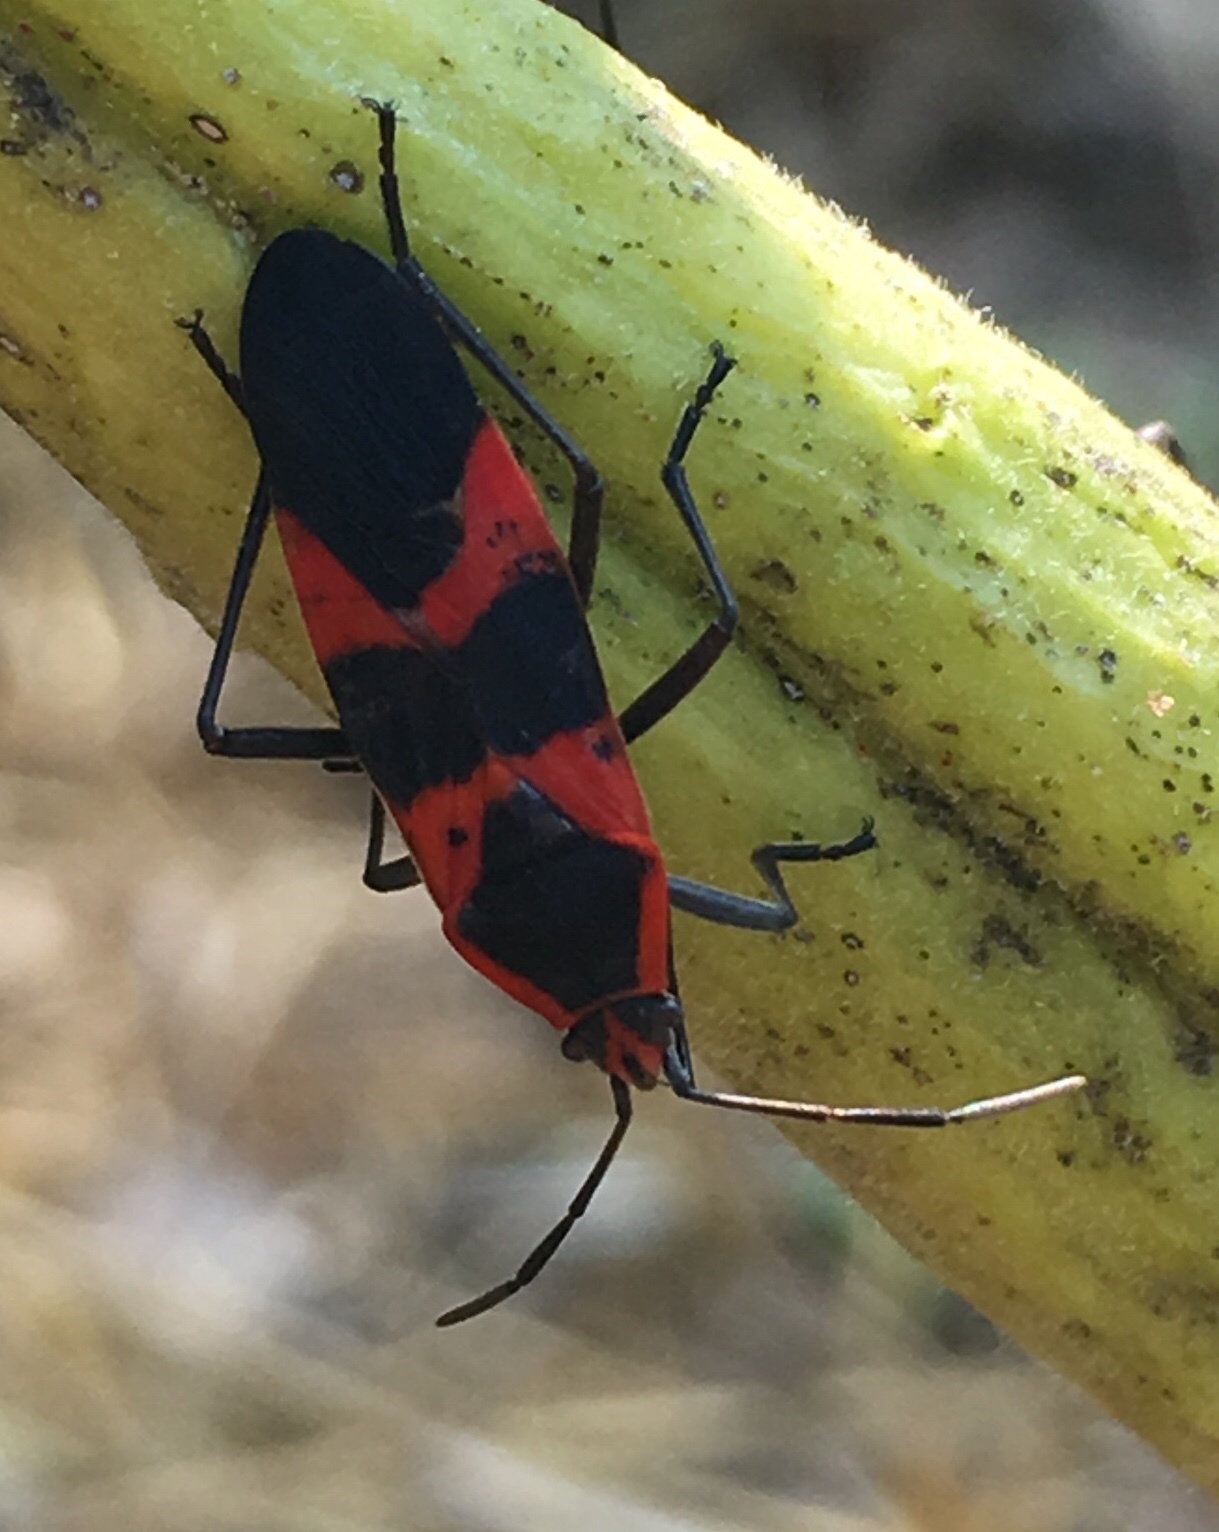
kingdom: Animalia
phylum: Arthropoda
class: Insecta
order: Hemiptera
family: Lygaeidae
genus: Oncopeltus
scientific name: Oncopeltus fasciatus
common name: Large milkweed bug
